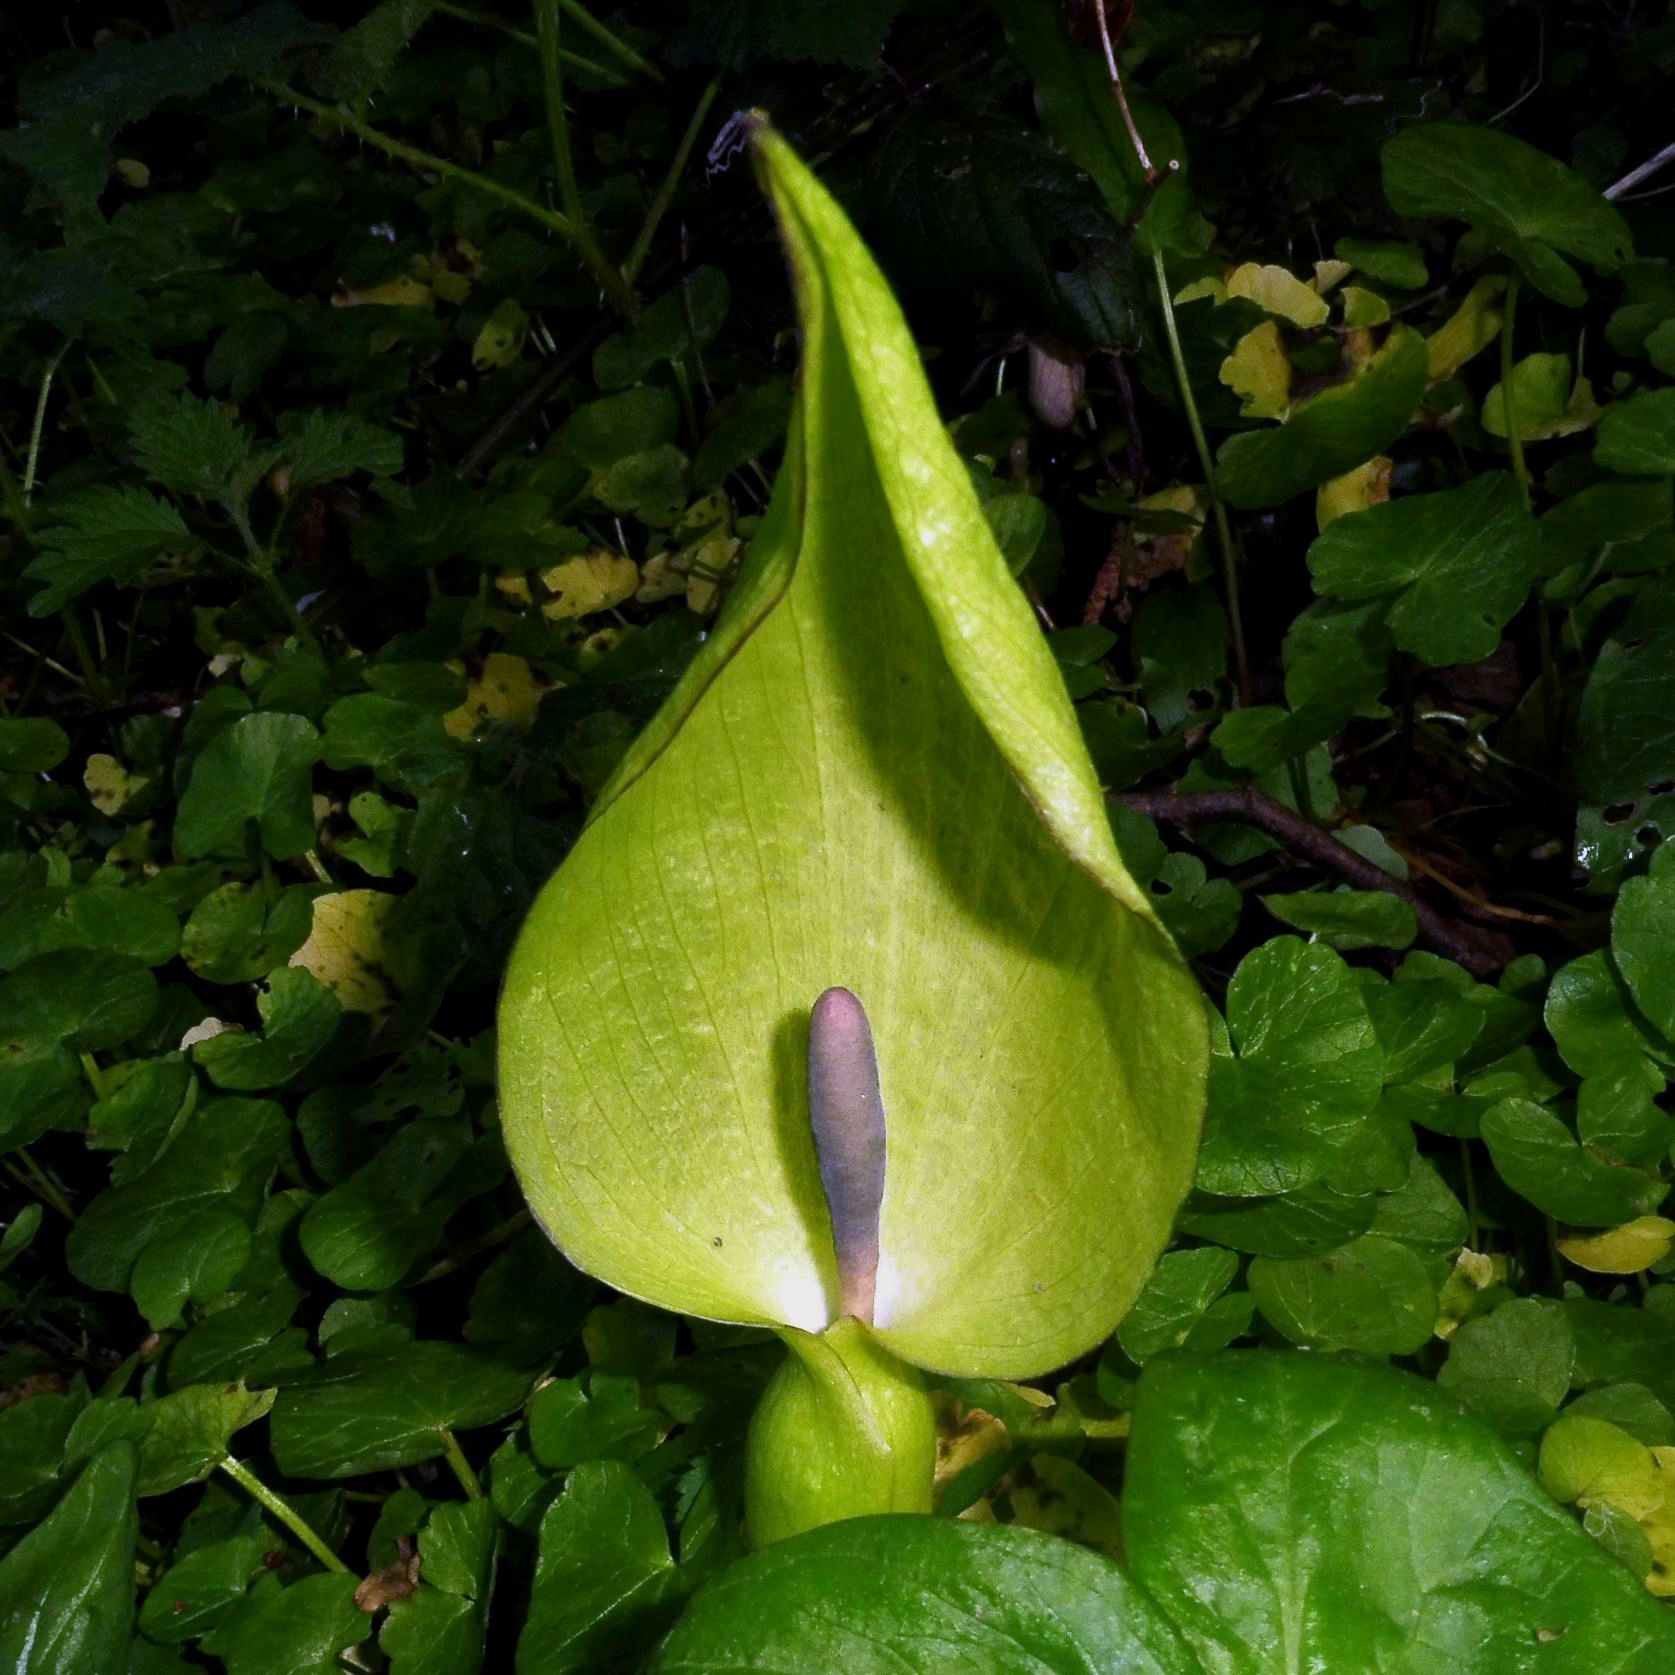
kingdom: Plantae
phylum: Tracheophyta
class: Liliopsida
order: Alismatales
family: Araceae
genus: Arum
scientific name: Arum maculatum
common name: Lords-and-ladies
